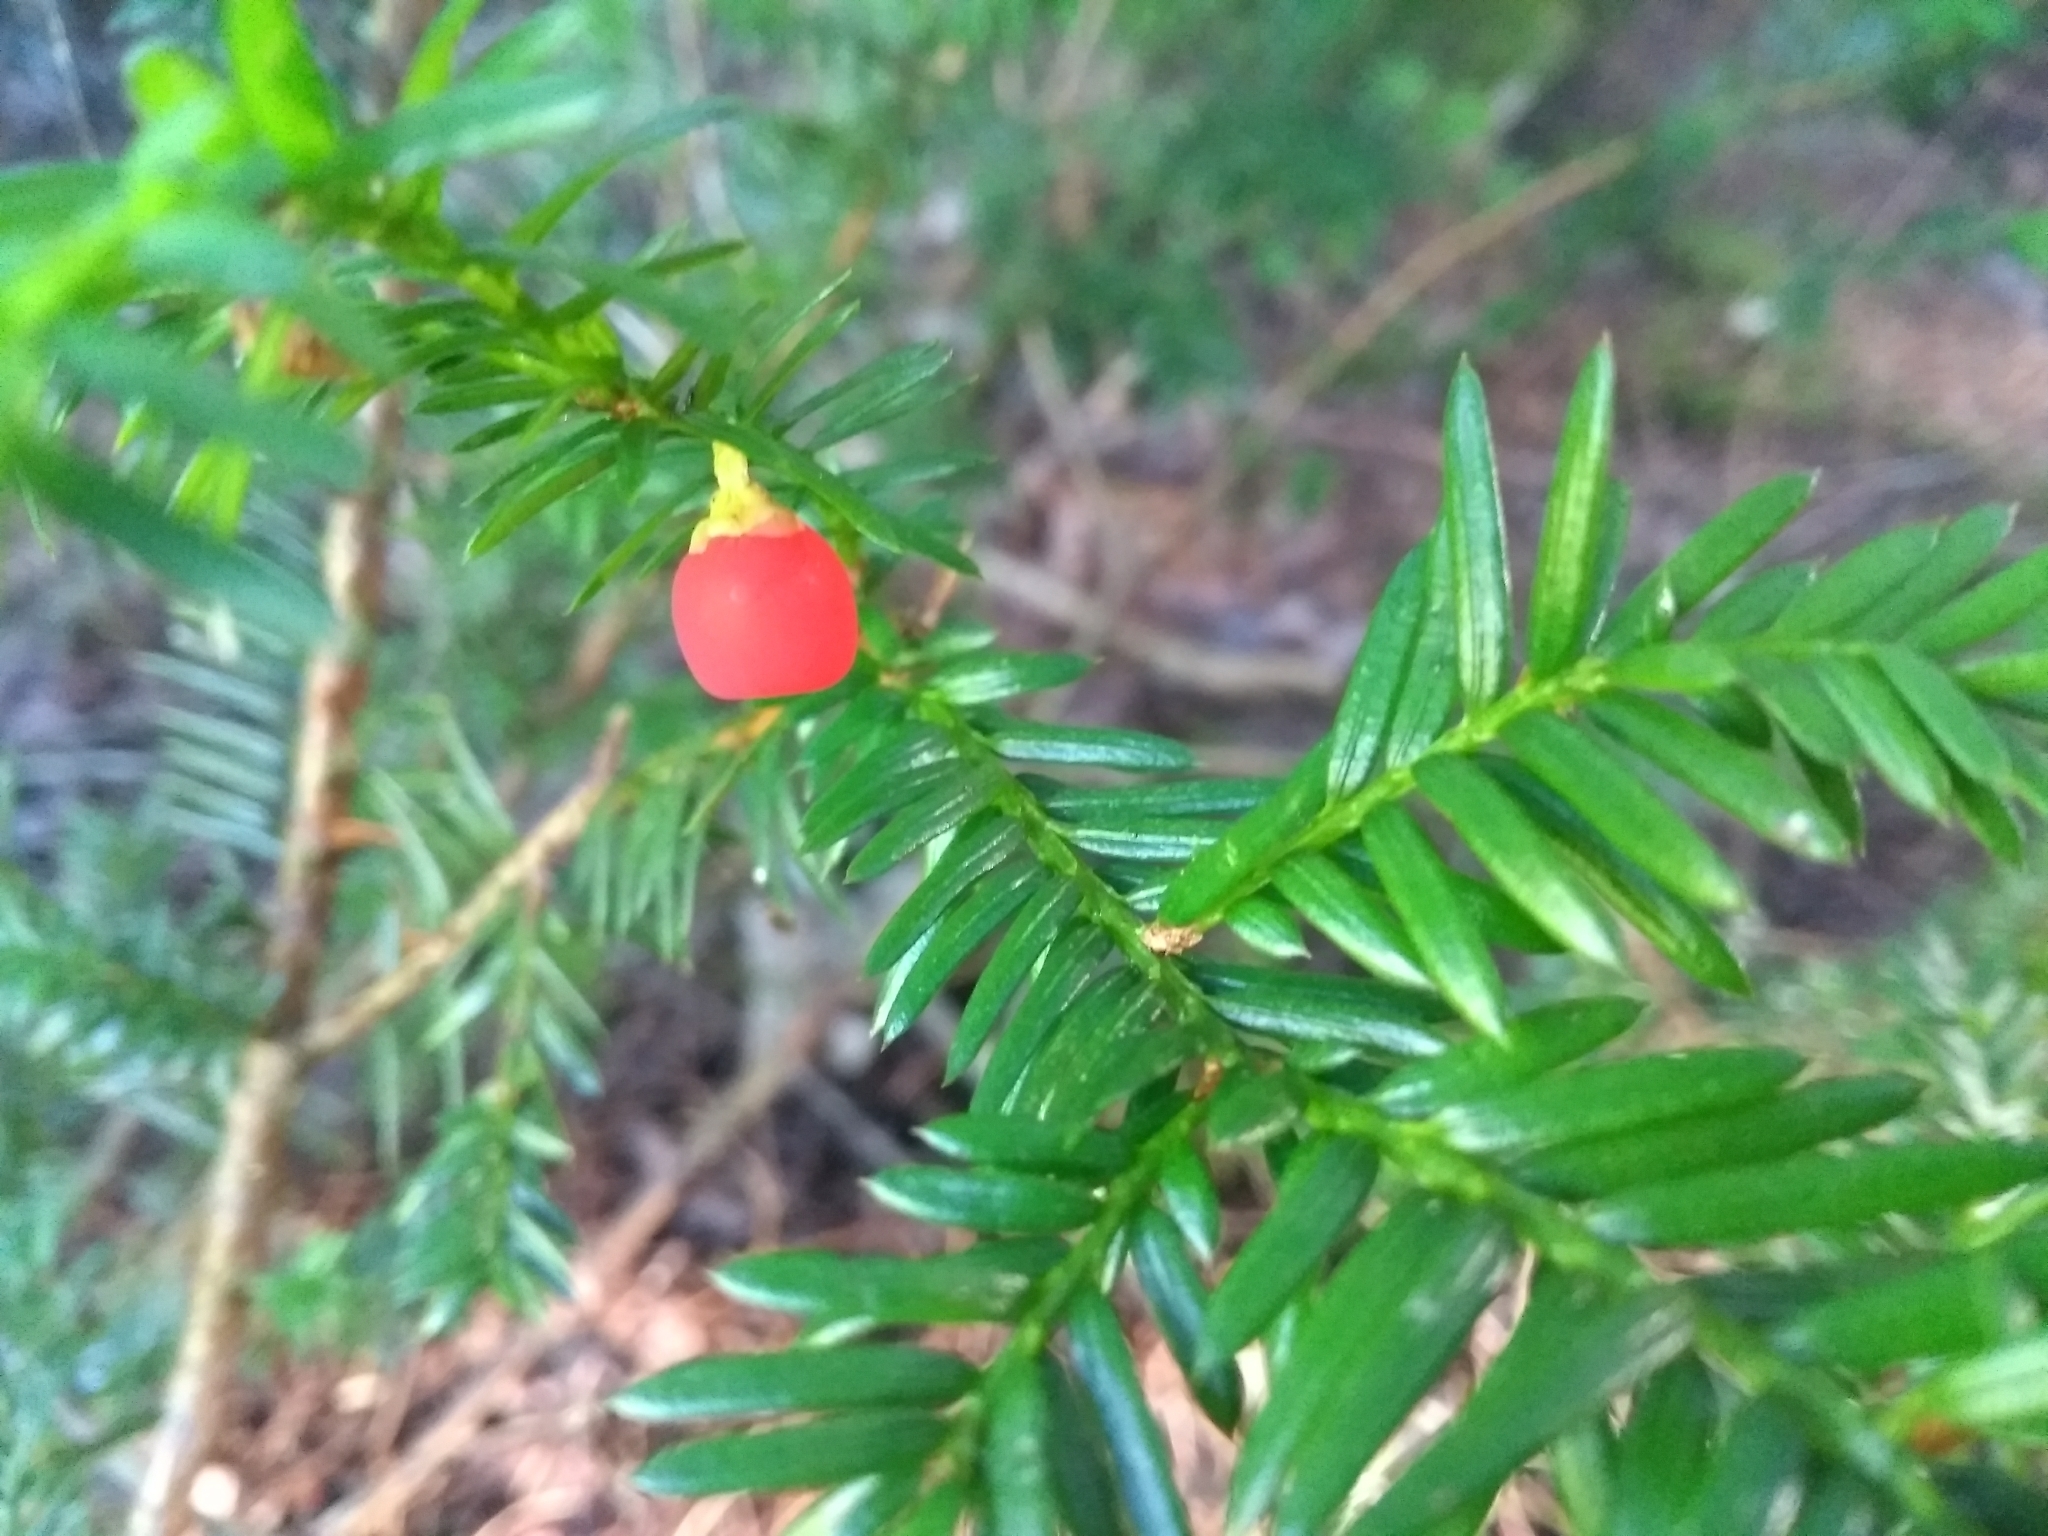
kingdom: Plantae
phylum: Tracheophyta
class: Pinopsida
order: Pinales
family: Taxaceae
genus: Taxus
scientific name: Taxus canadensis
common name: American yew
